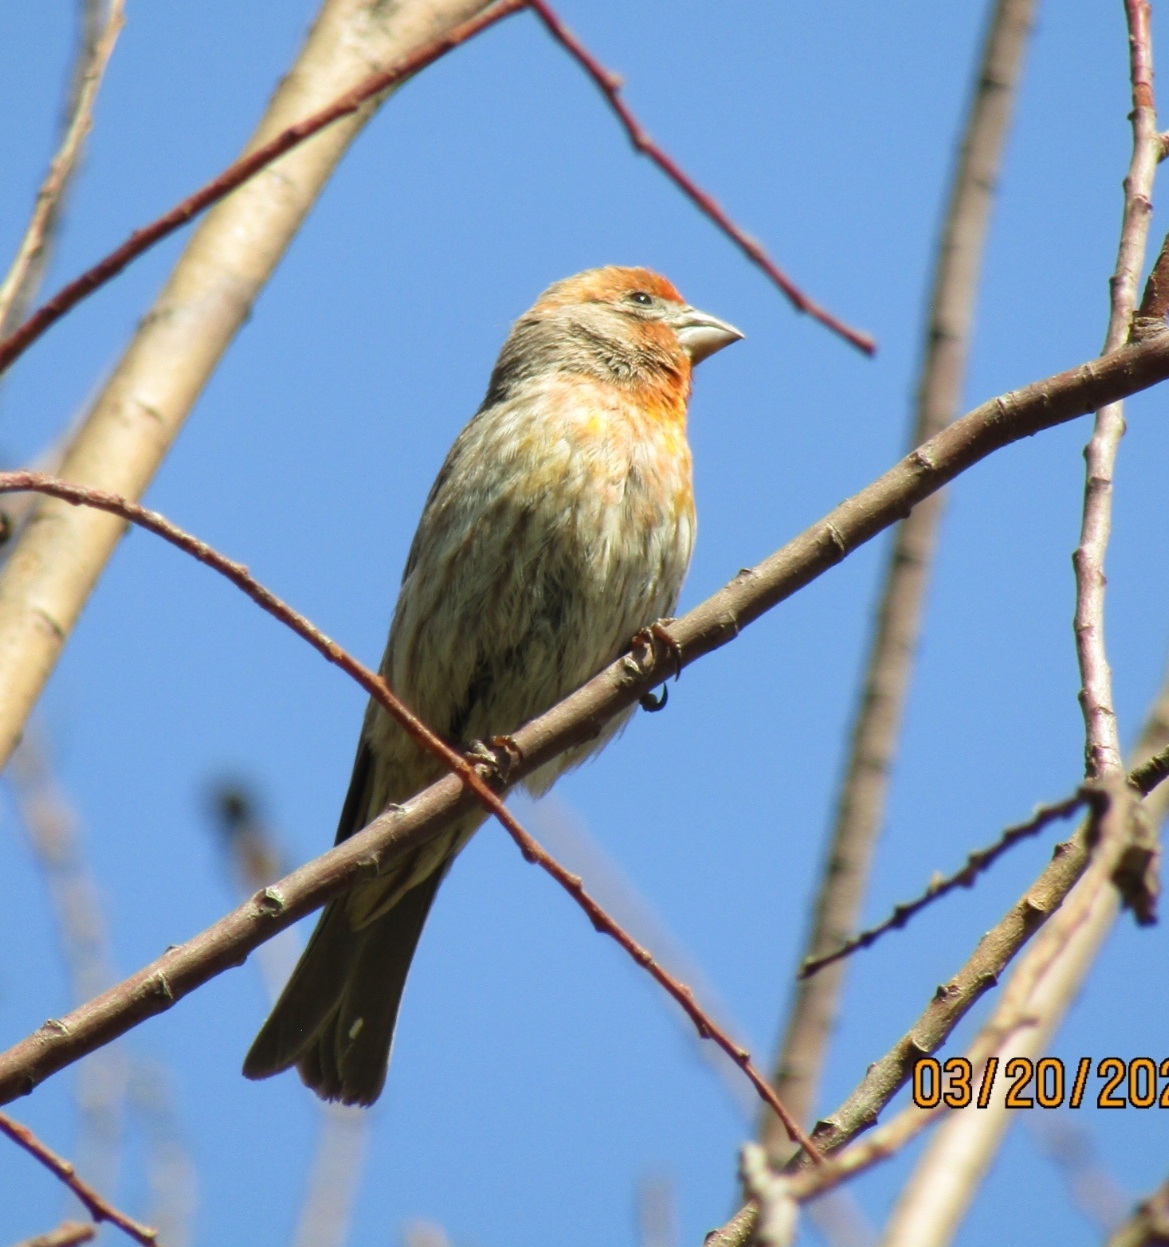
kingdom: Animalia
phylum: Chordata
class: Aves
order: Passeriformes
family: Fringillidae
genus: Haemorhous
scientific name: Haemorhous mexicanus
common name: House finch
